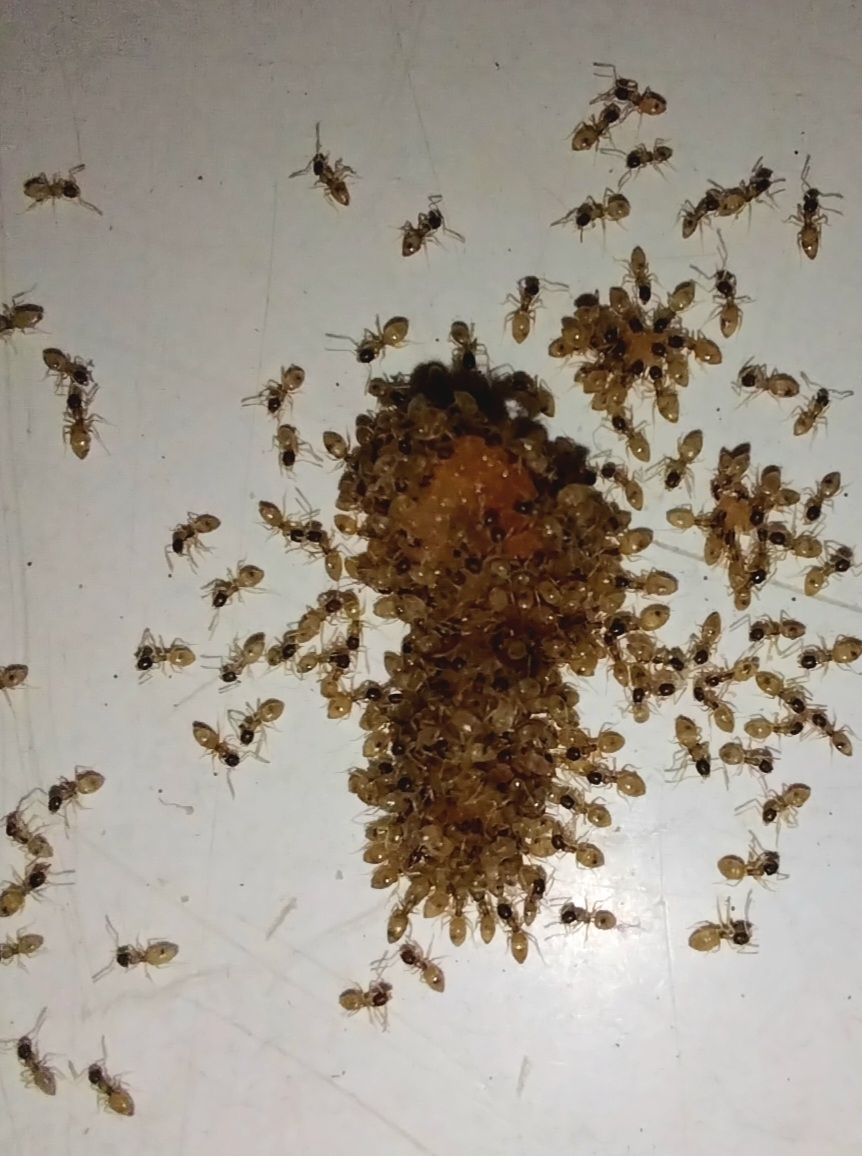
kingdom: Animalia
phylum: Arthropoda
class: Insecta
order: Hymenoptera
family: Formicidae
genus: Tapinoma
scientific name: Tapinoma melanocephalum
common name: Ghost ant
